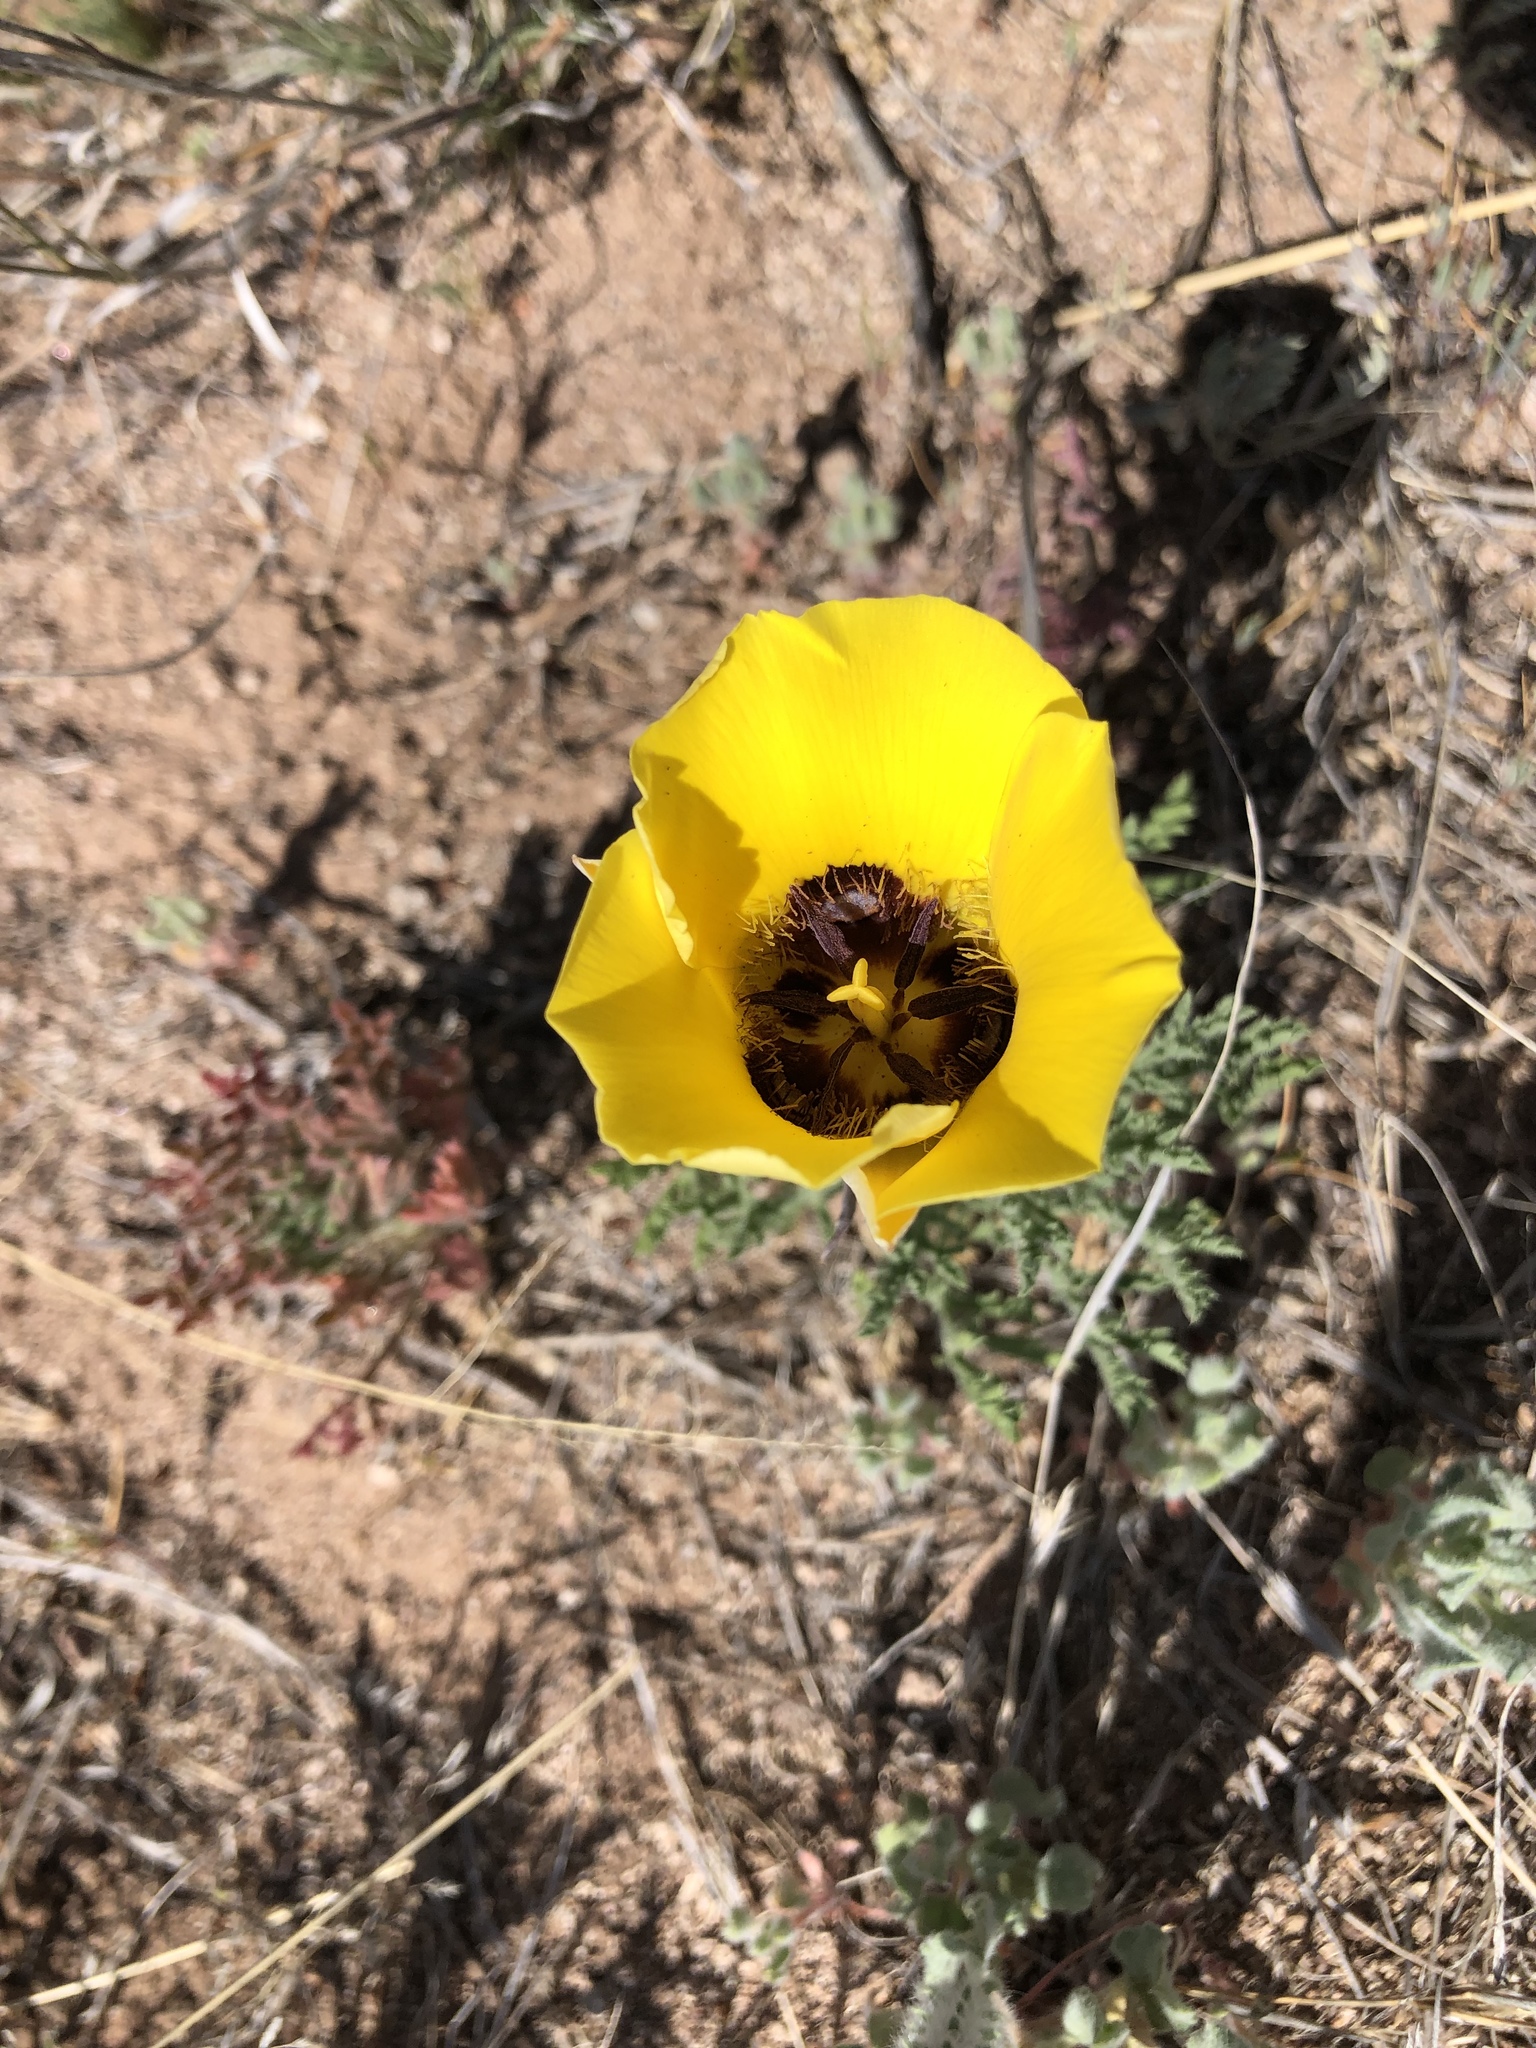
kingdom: Plantae
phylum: Tracheophyta
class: Liliopsida
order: Liliales
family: Liliaceae
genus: Calochortus
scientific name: Calochortus kennedyi
